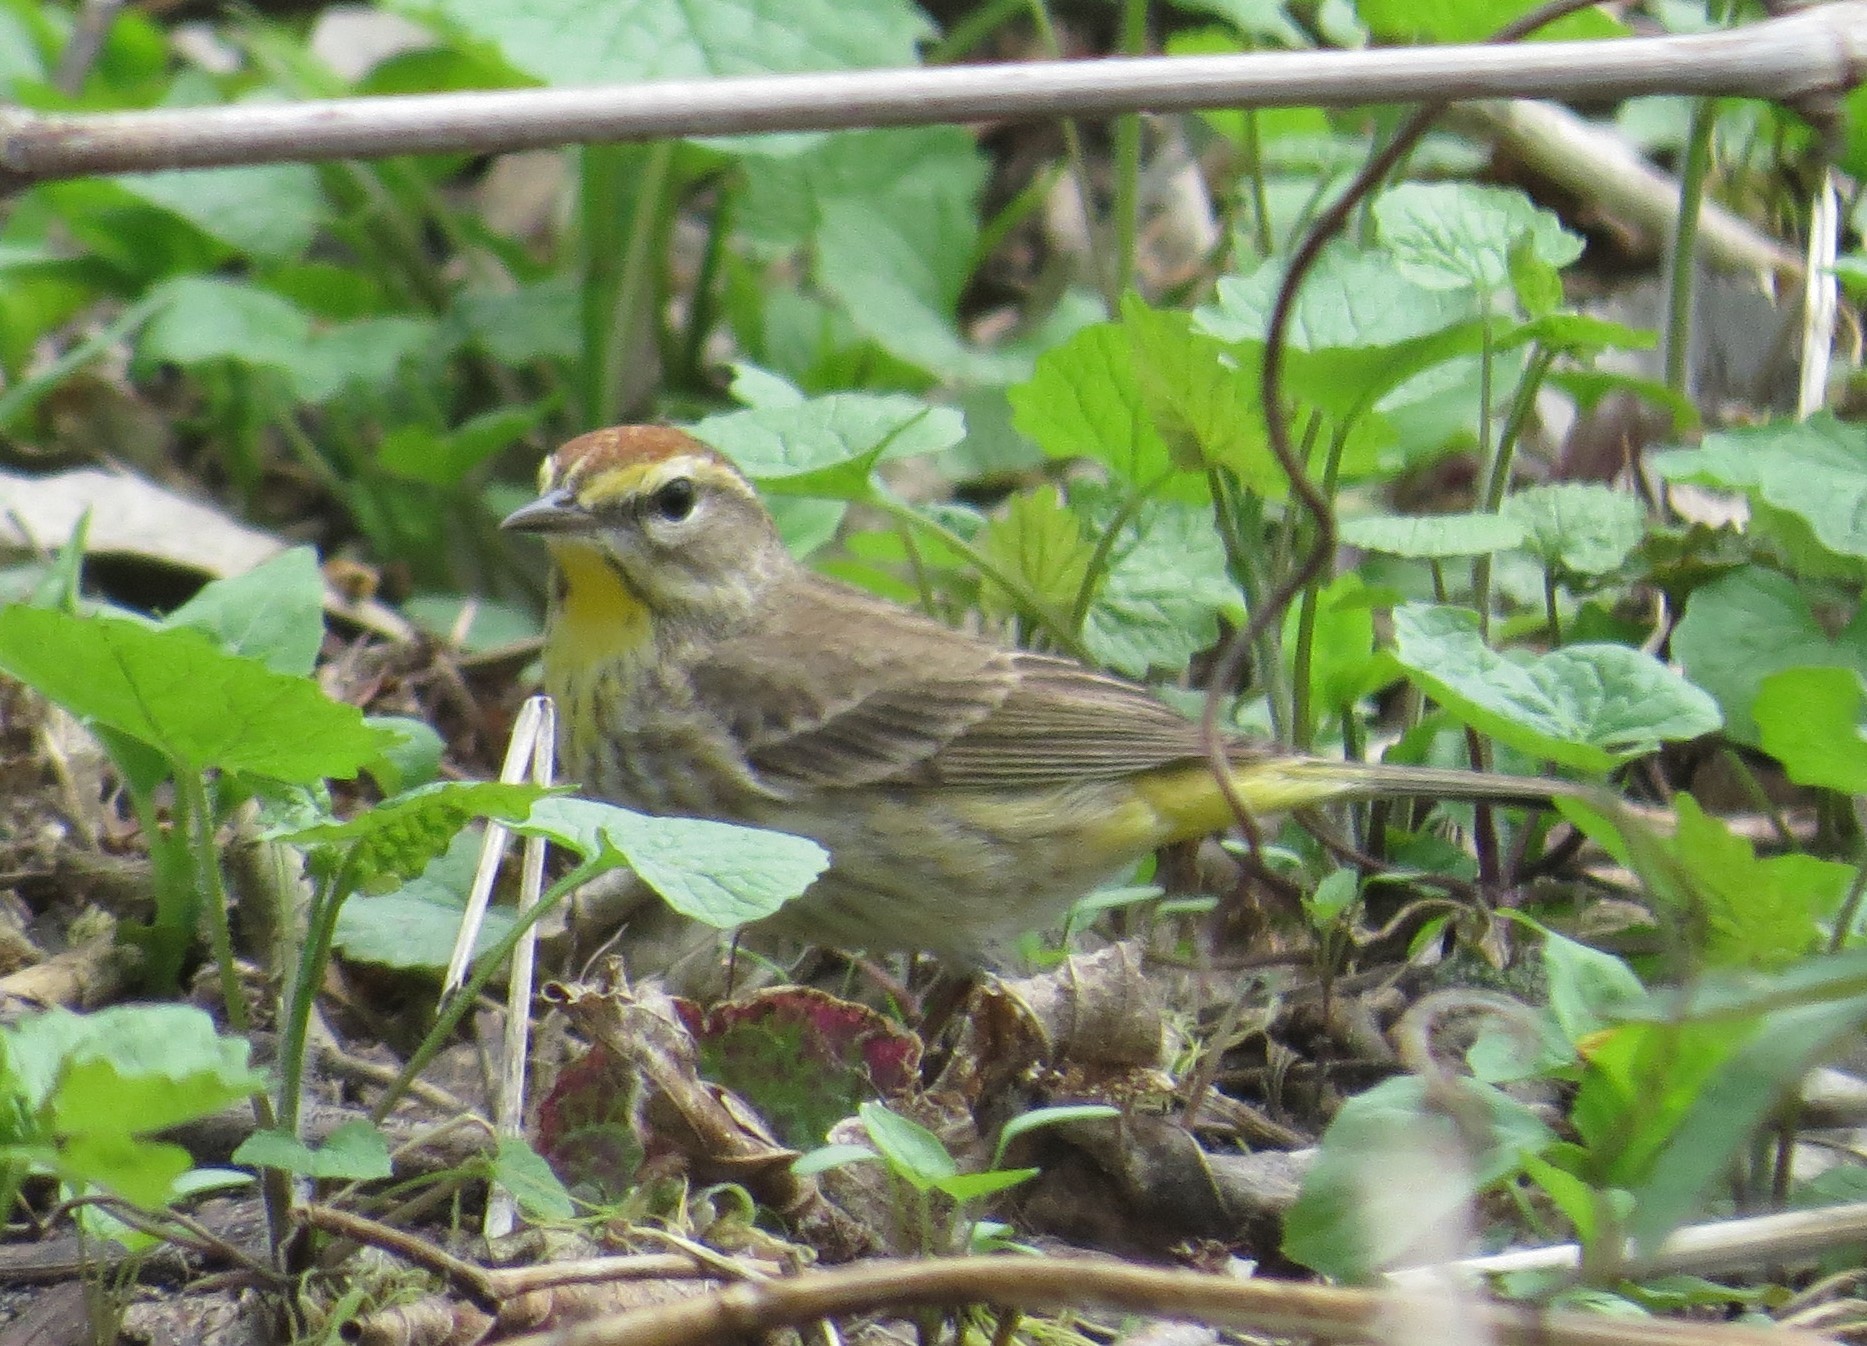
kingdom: Animalia
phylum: Chordata
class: Aves
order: Passeriformes
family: Parulidae
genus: Setophaga
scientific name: Setophaga palmarum
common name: Palm warbler
